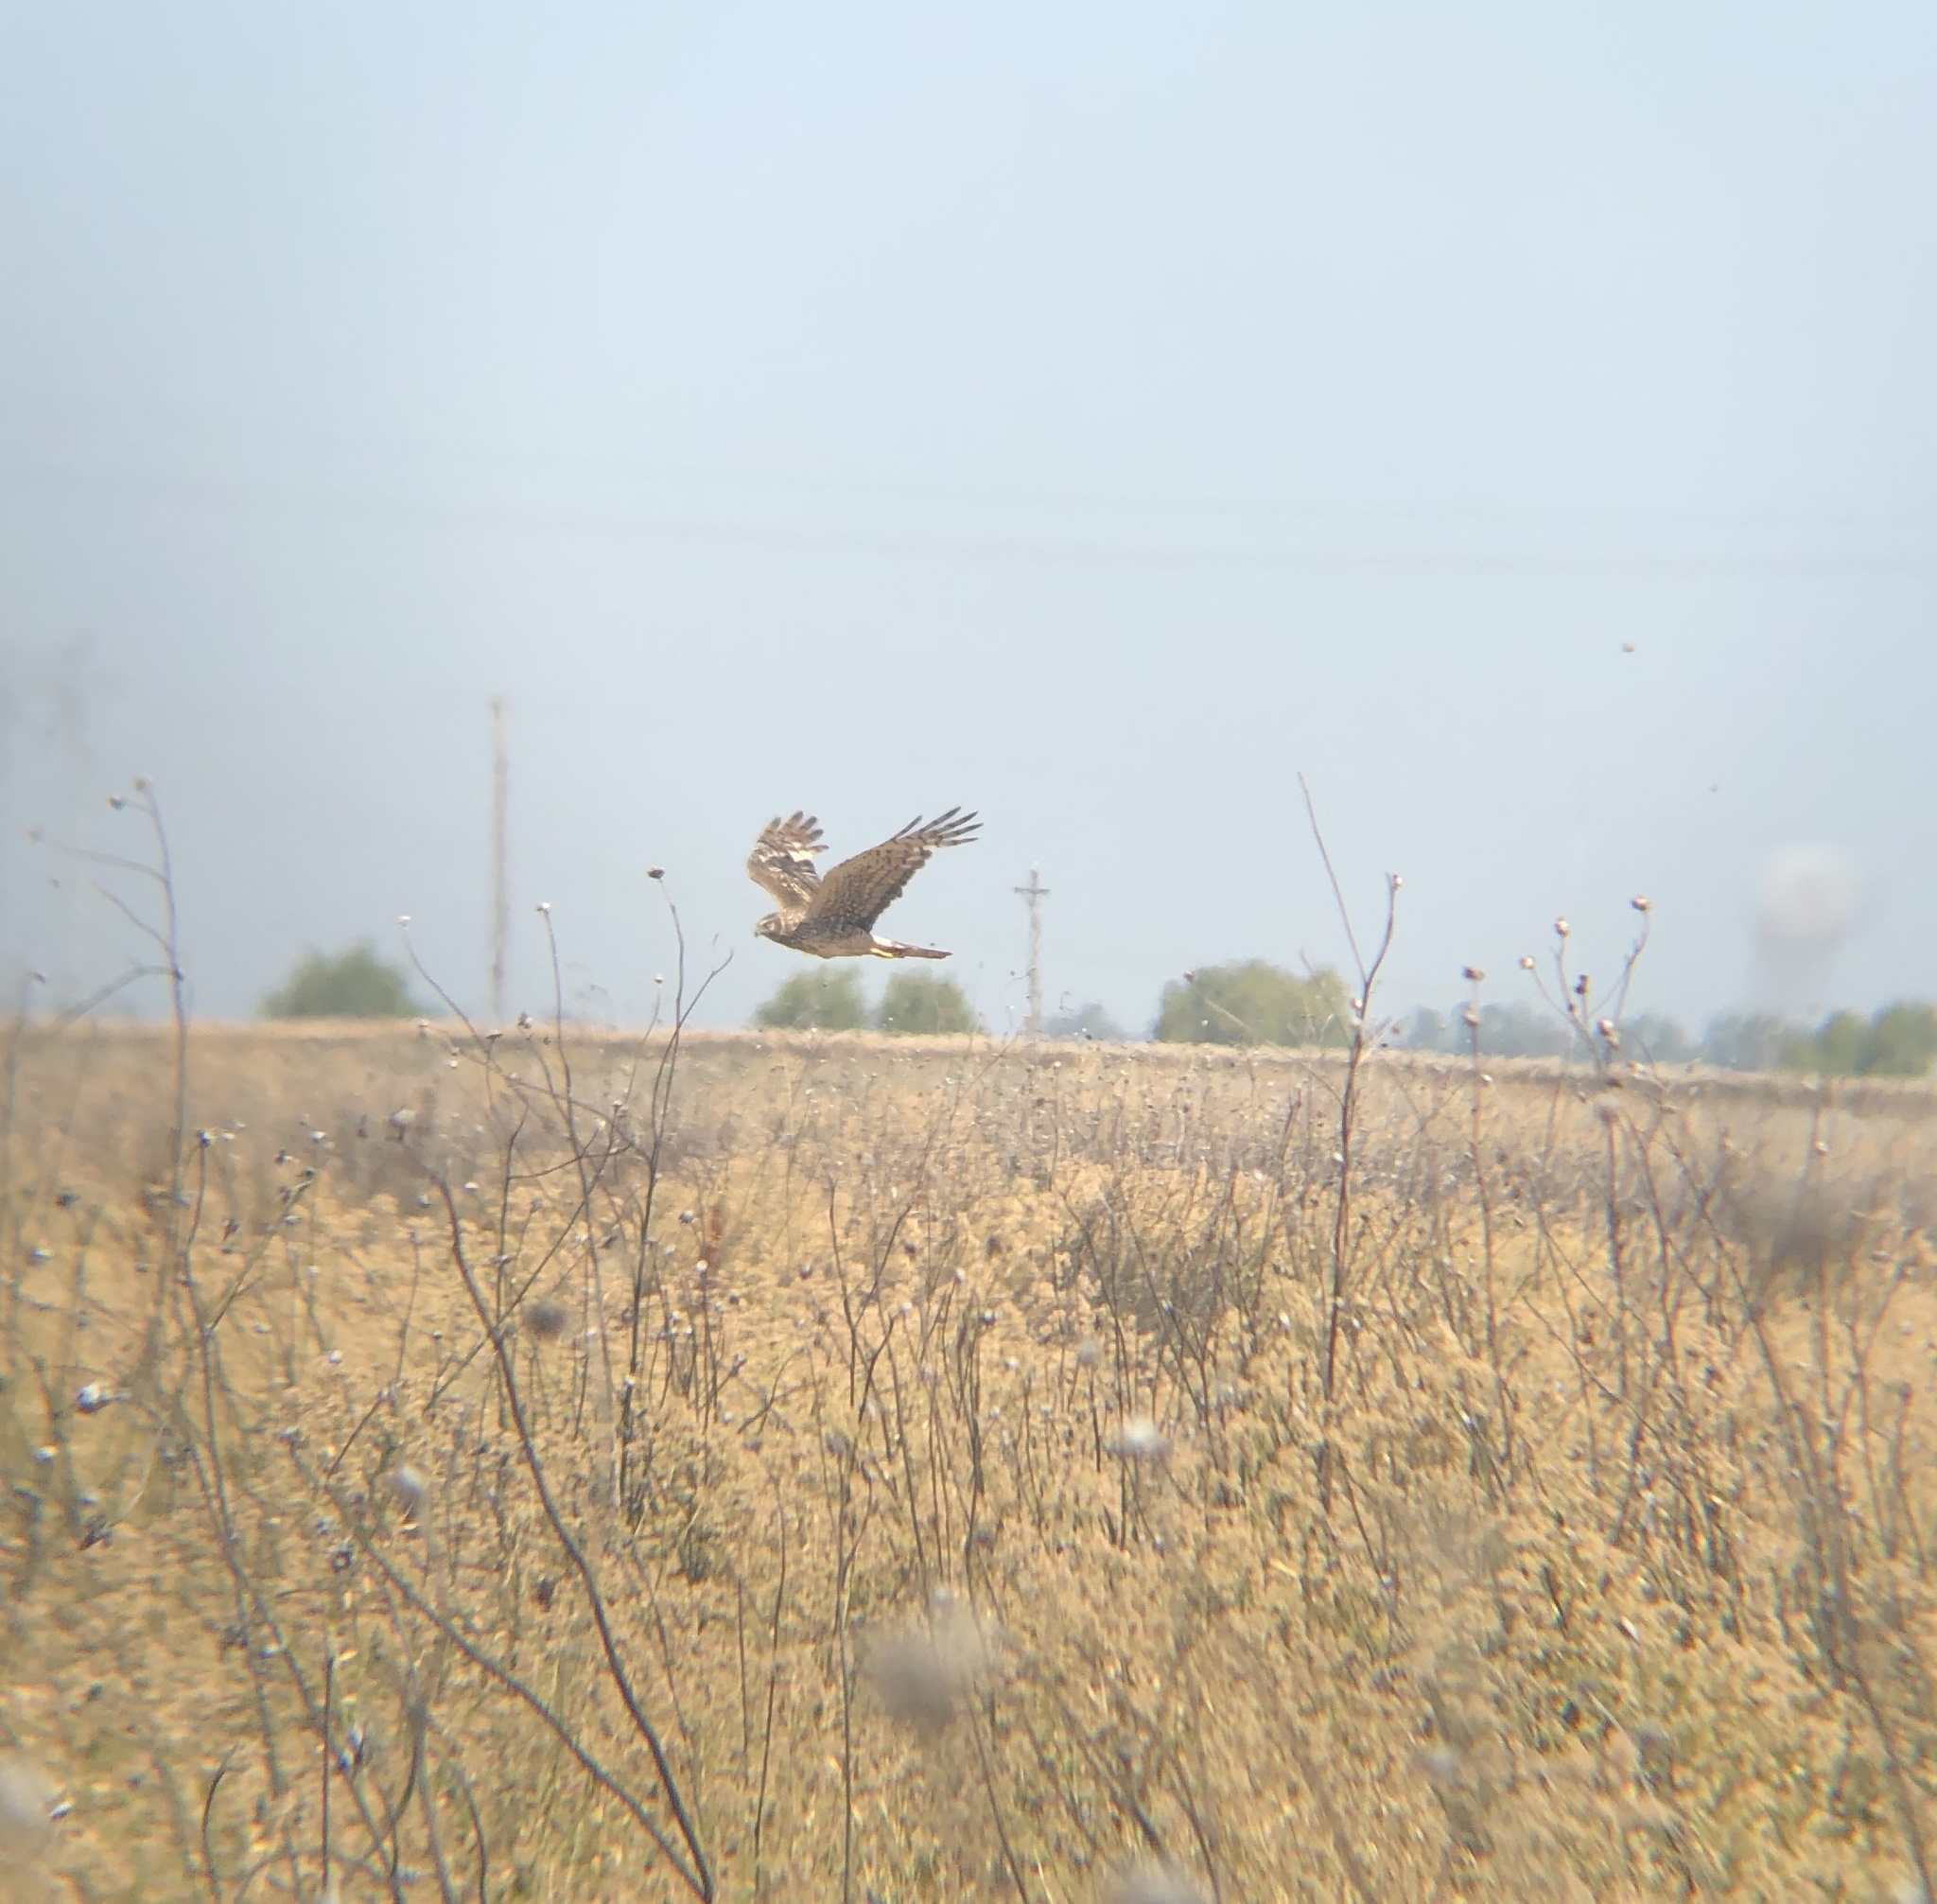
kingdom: Animalia
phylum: Chordata
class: Aves
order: Accipitriformes
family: Accipitridae
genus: Circus
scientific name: Circus cyaneus
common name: Hen harrier
